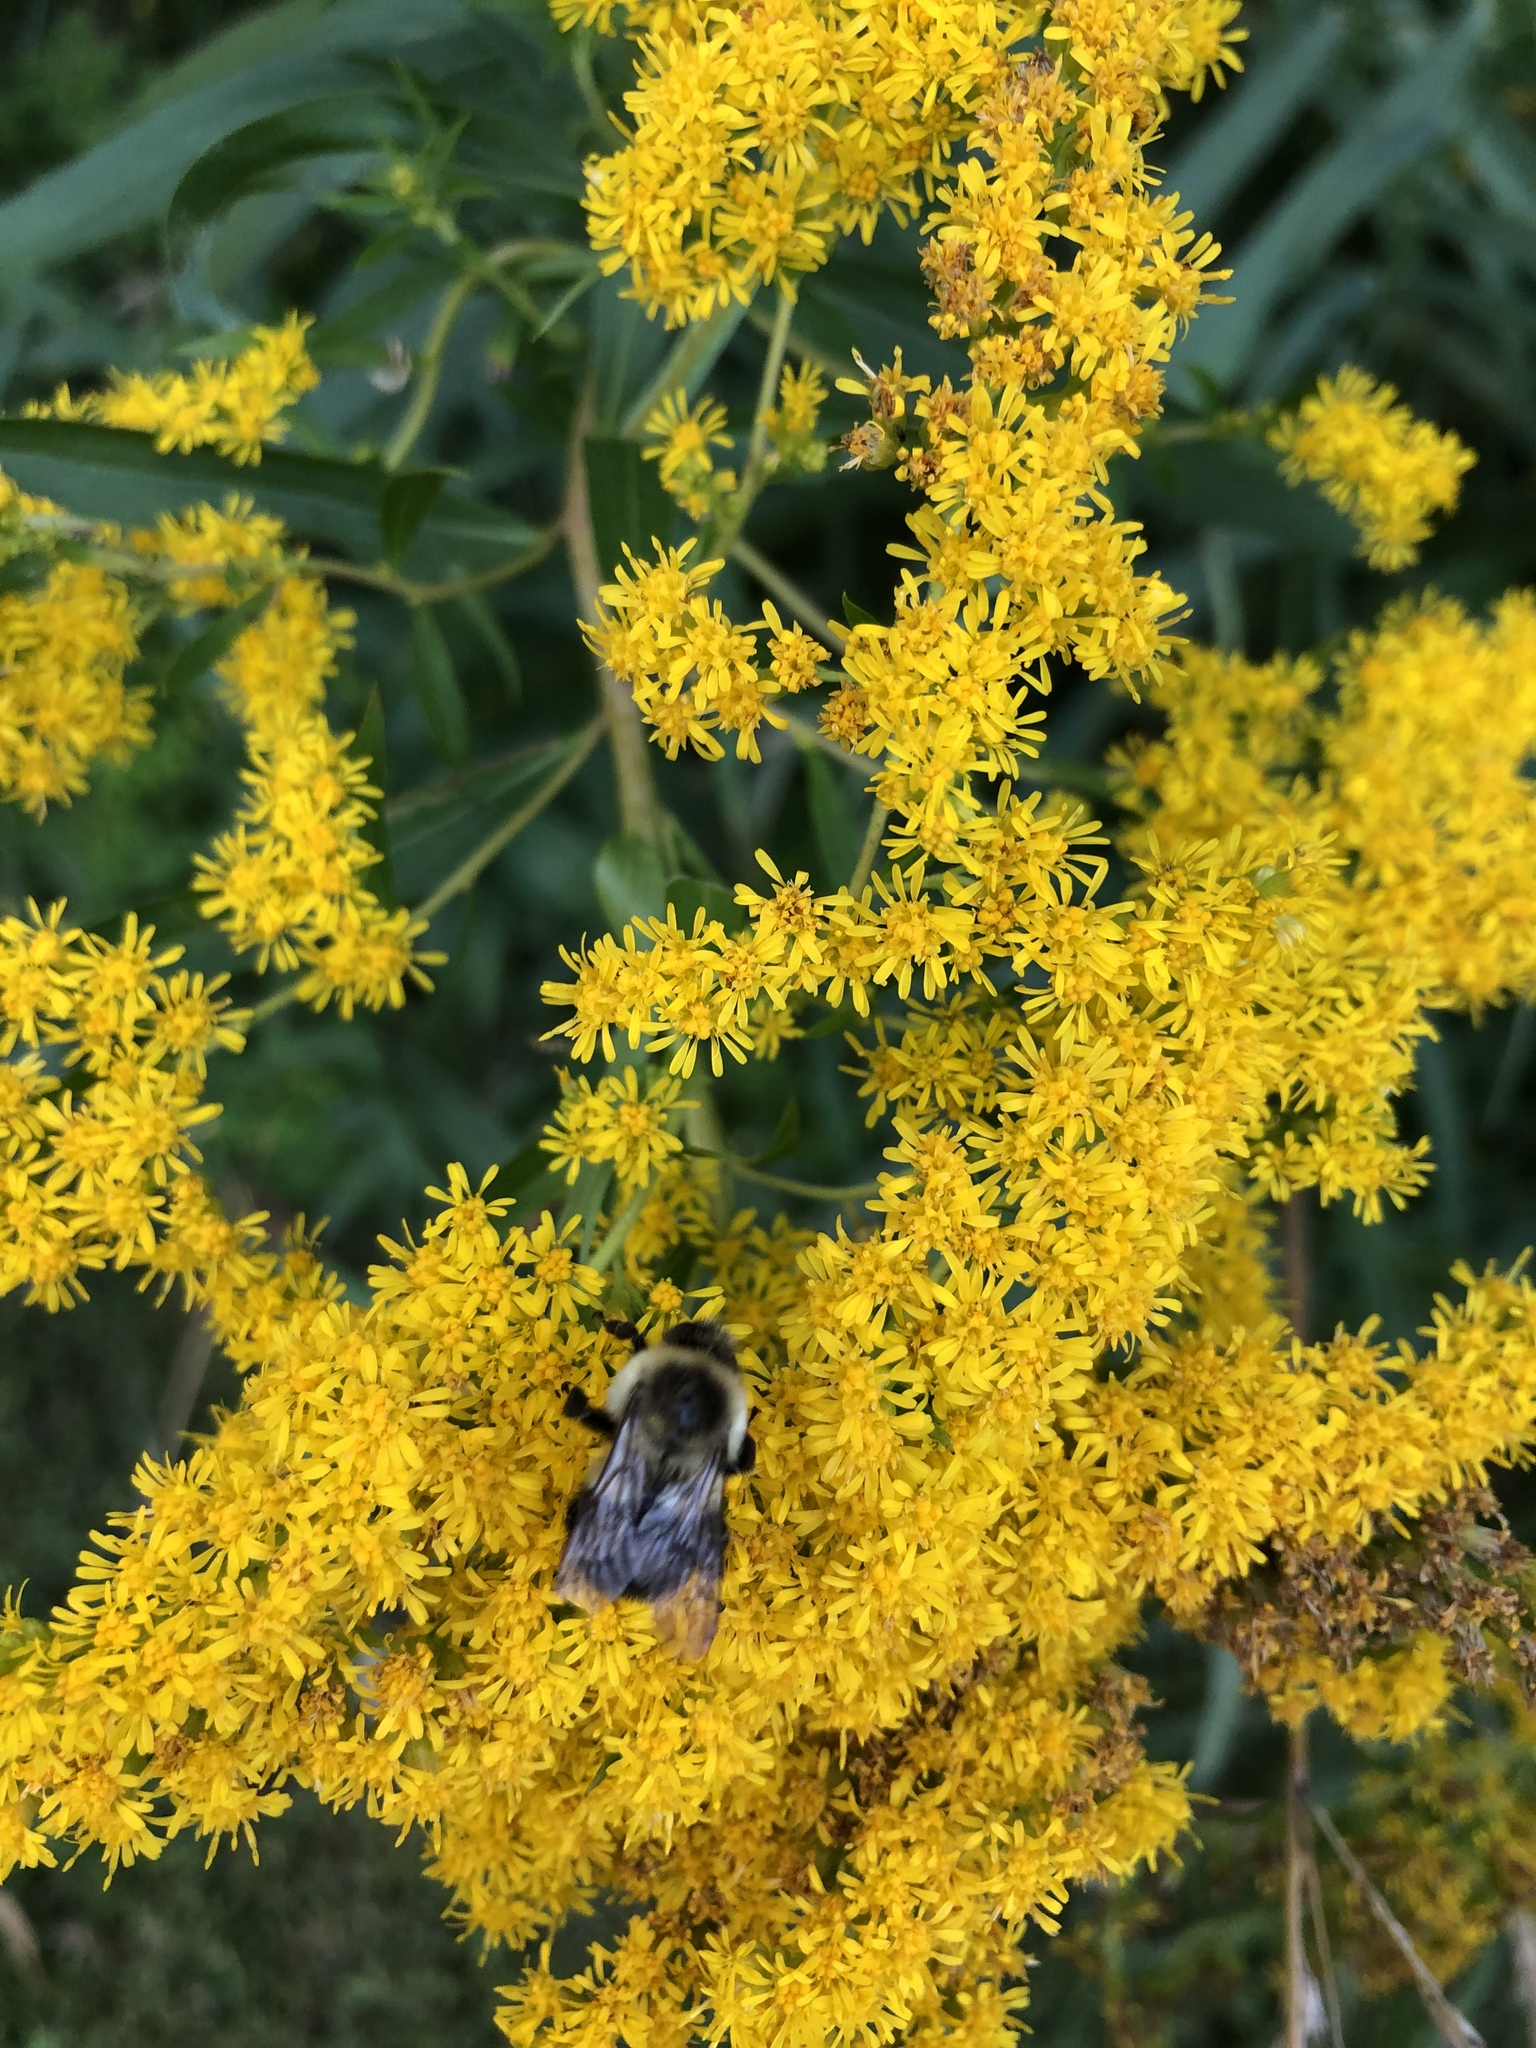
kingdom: Animalia
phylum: Arthropoda
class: Insecta
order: Hymenoptera
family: Apidae
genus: Bombus
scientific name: Bombus impatiens
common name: Common eastern bumble bee
